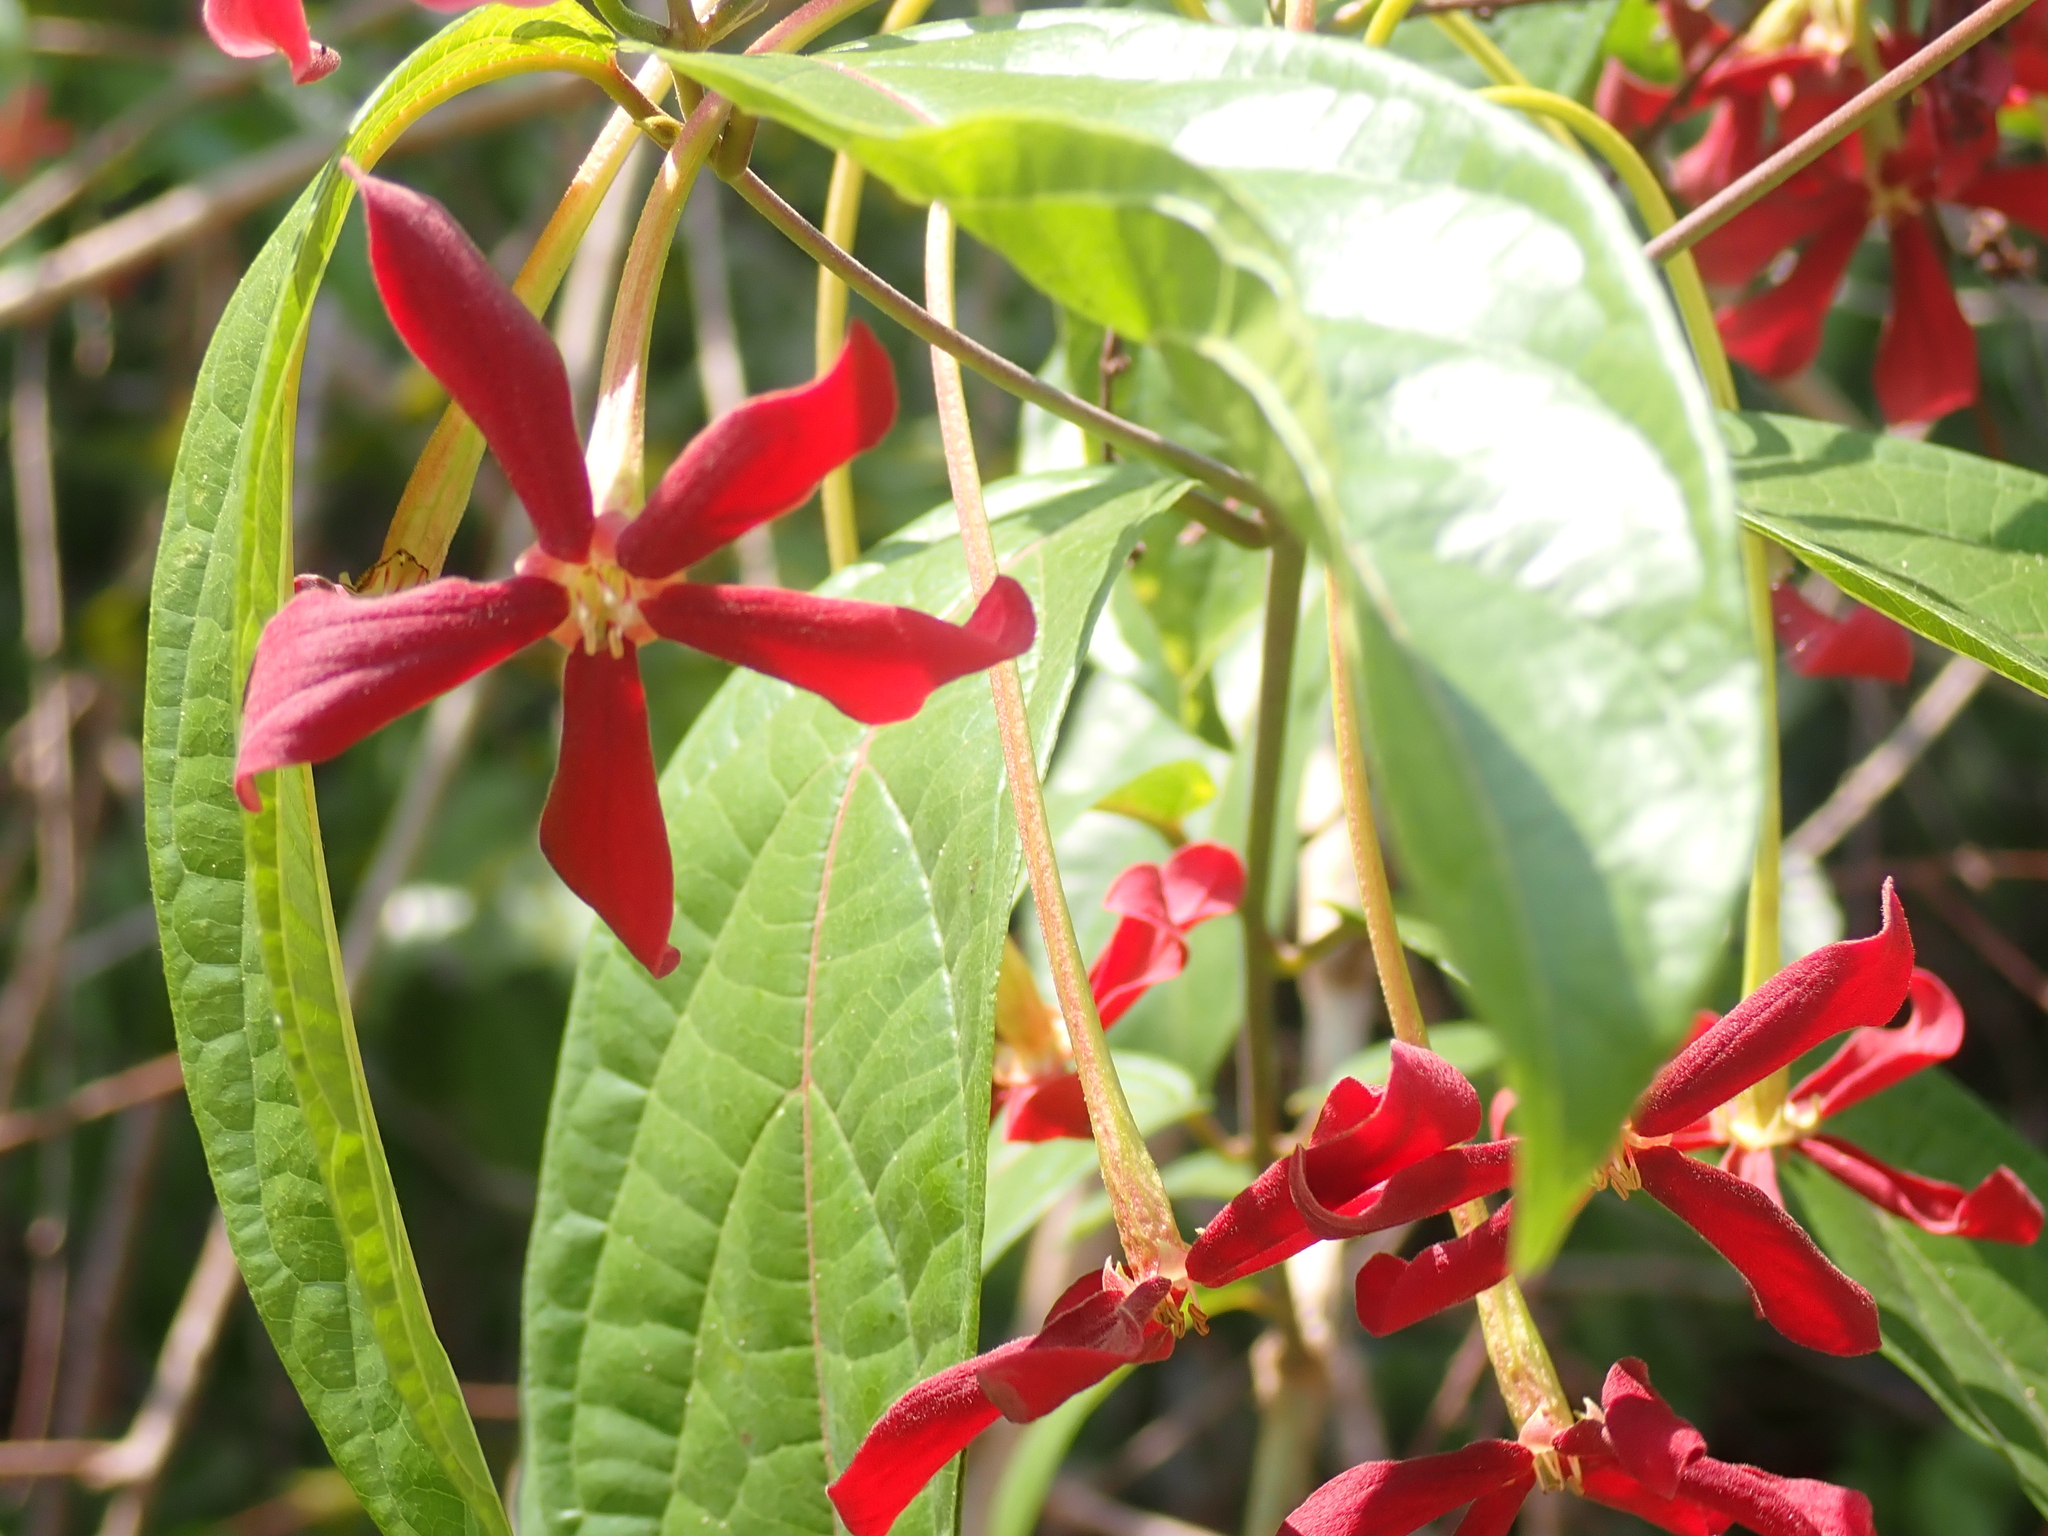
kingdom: Plantae
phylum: Tracheophyta
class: Magnoliopsida
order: Myrtales
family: Combretaceae
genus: Combretum
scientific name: Combretum indicum
